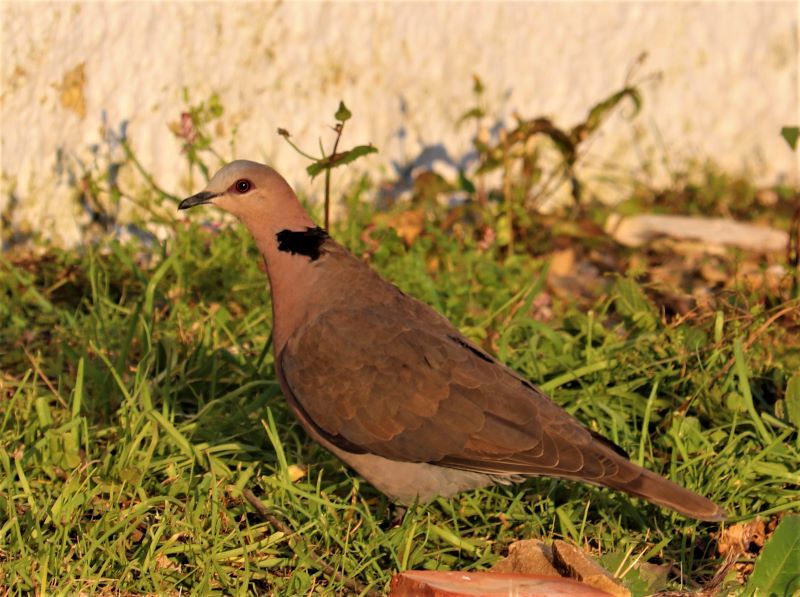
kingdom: Animalia
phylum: Chordata
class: Aves
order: Columbiformes
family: Columbidae
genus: Streptopelia
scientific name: Streptopelia semitorquata
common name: Red-eyed dove
